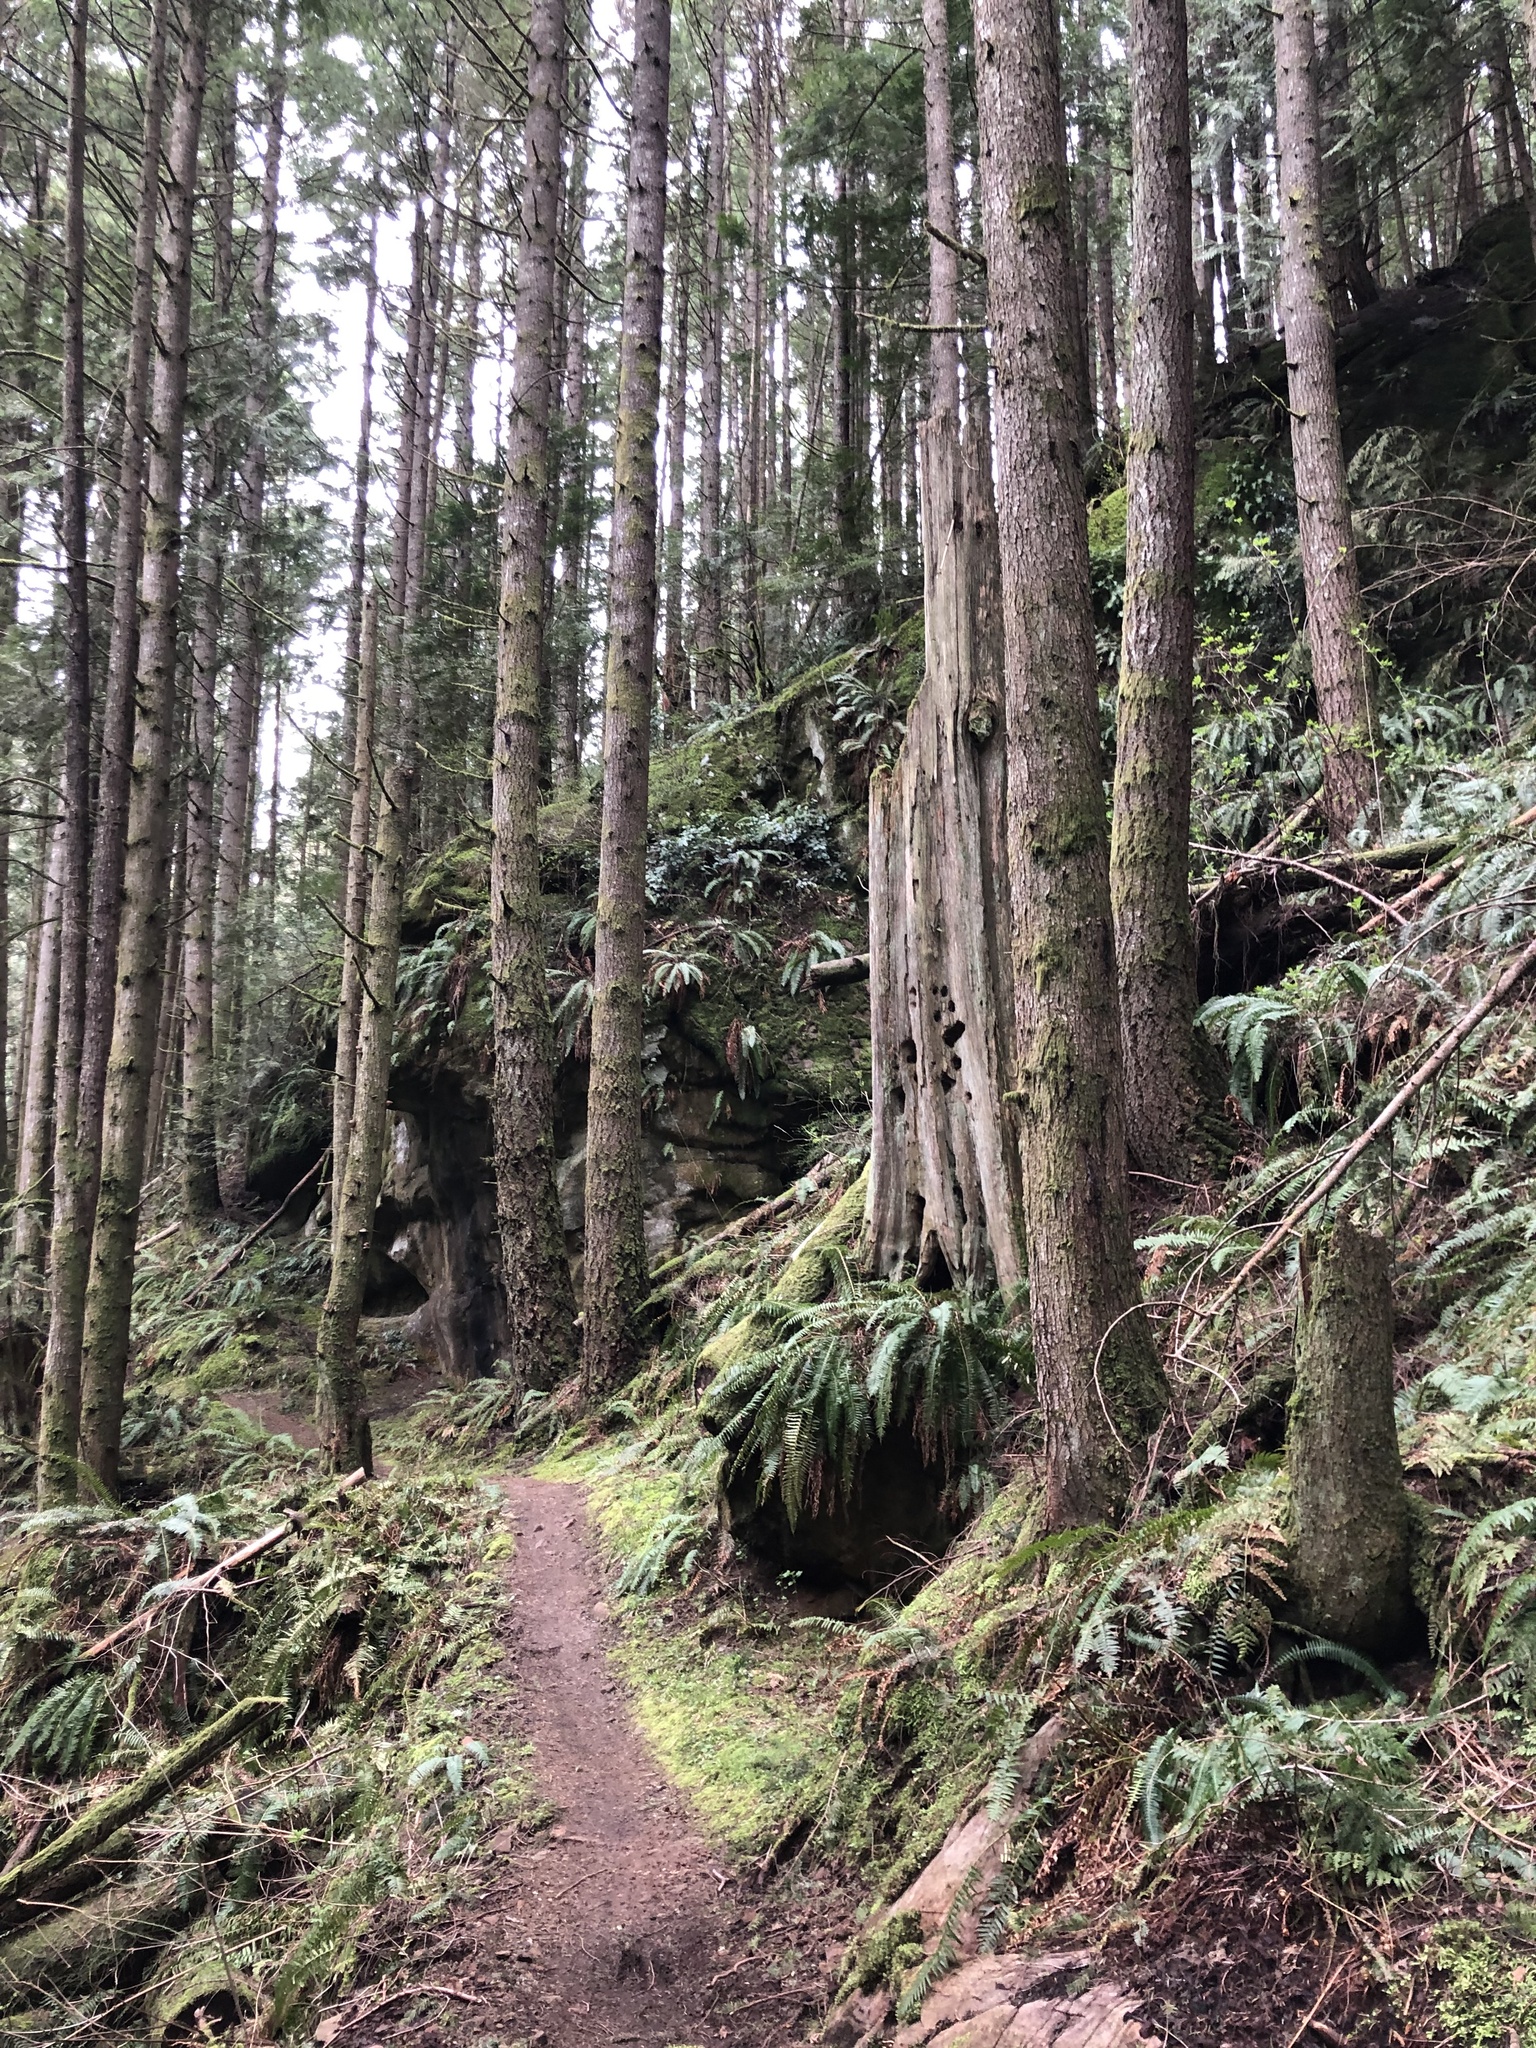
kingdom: Plantae
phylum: Tracheophyta
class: Polypodiopsida
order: Polypodiales
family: Dryopteridaceae
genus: Polystichum
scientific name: Polystichum munitum
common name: Western sword-fern
